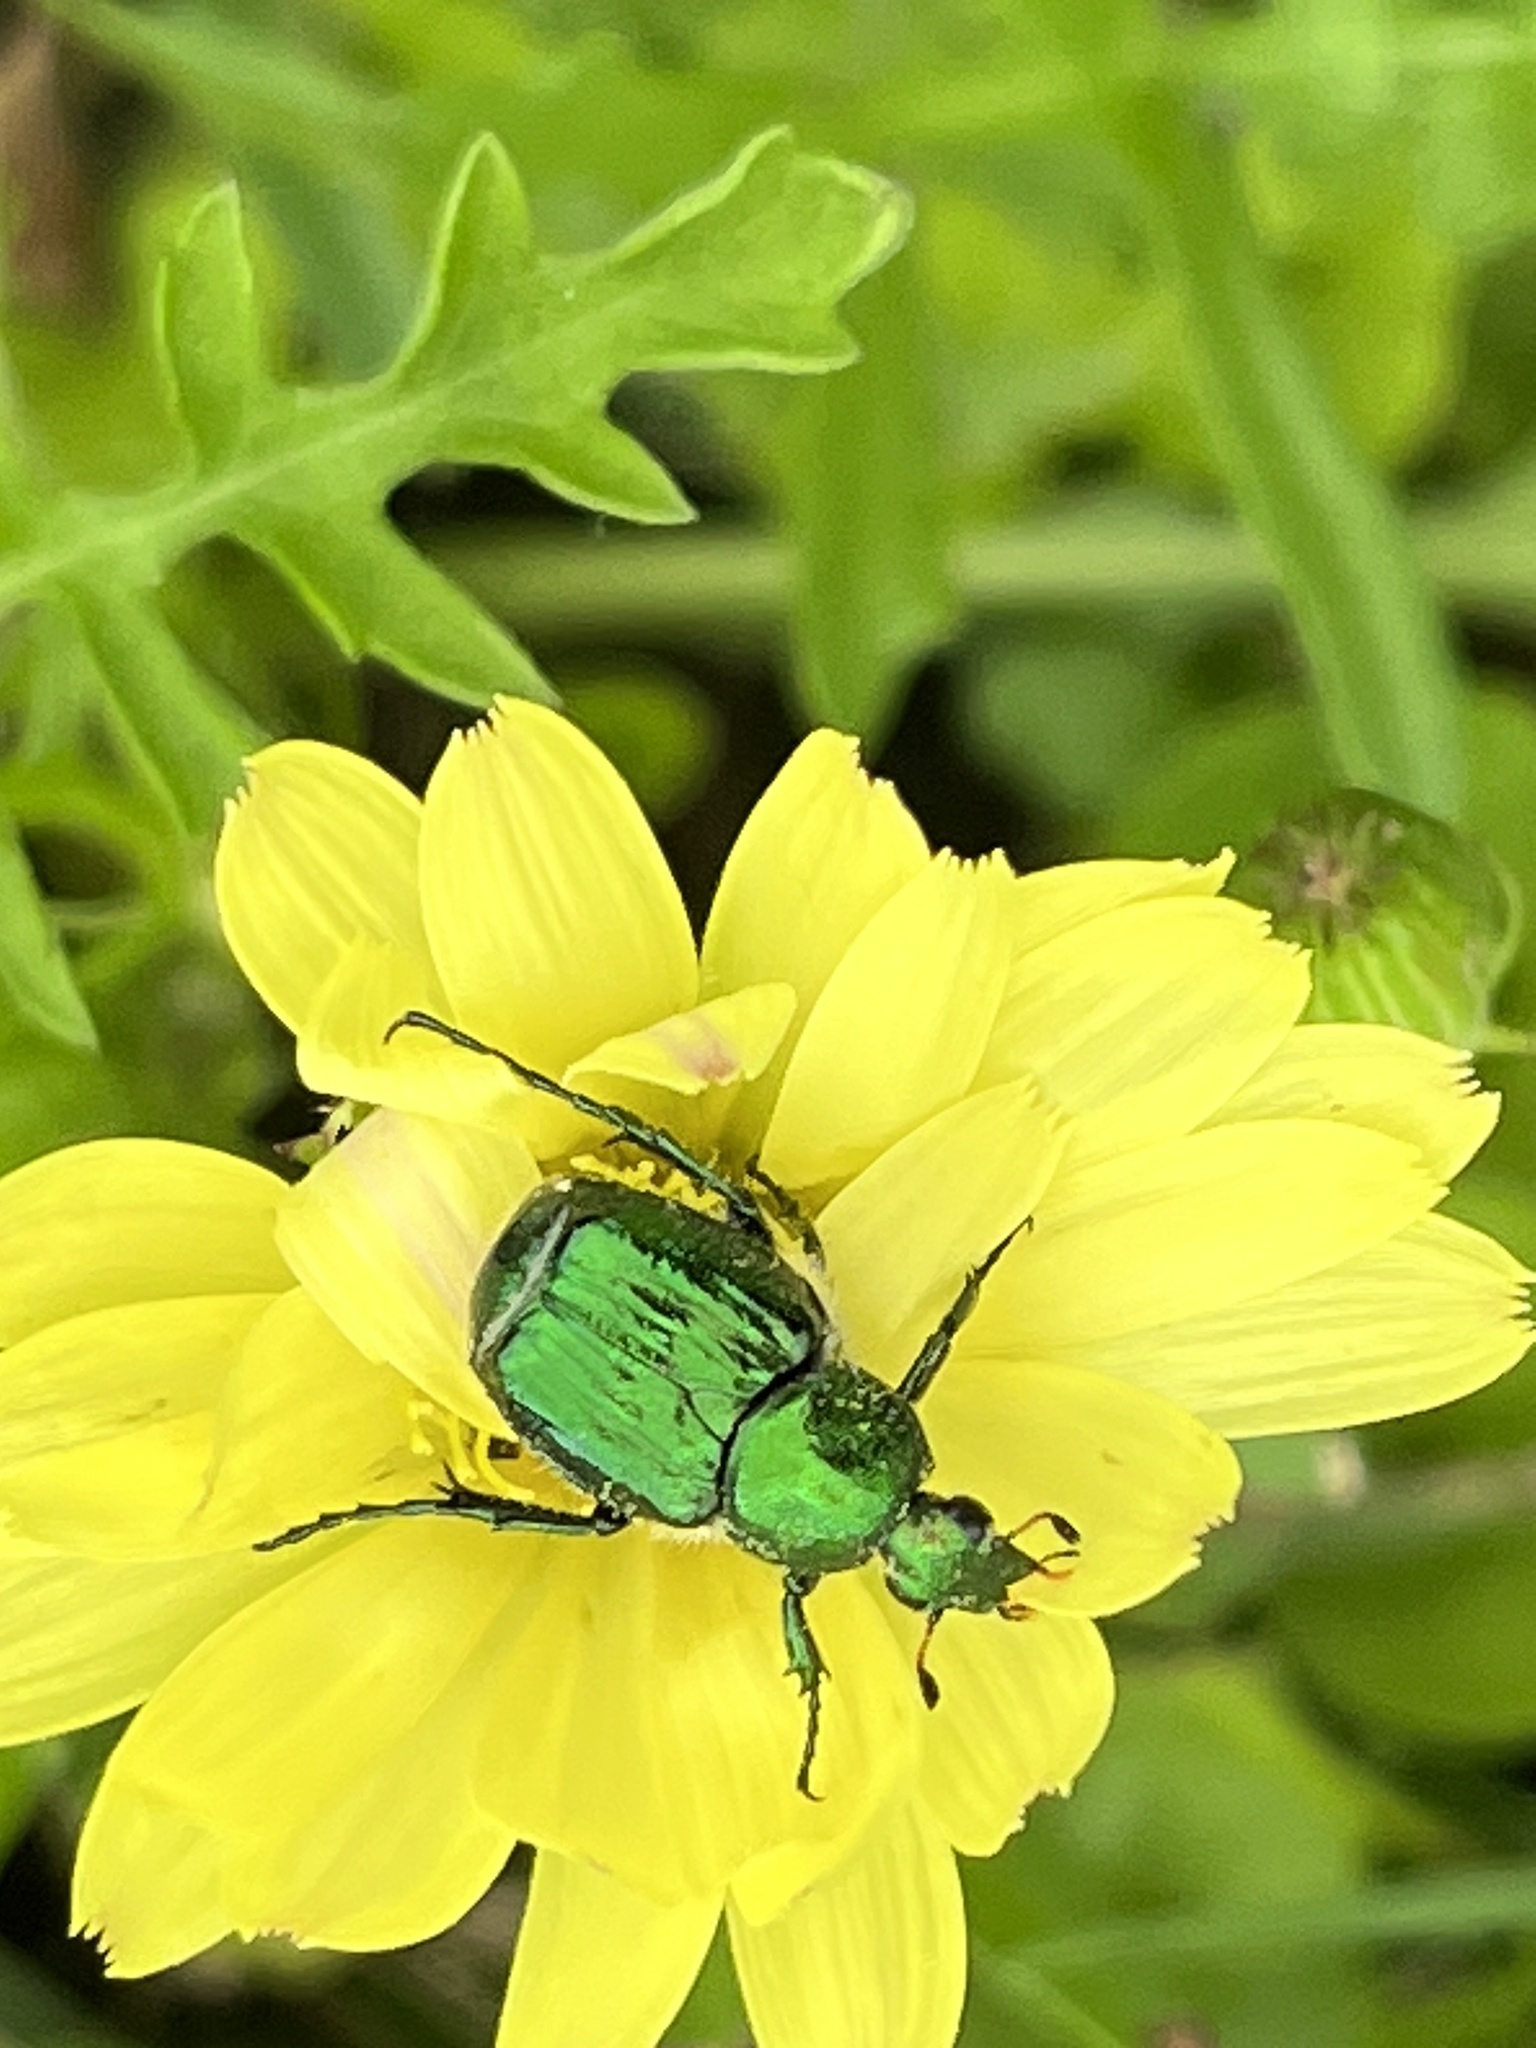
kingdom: Animalia
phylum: Arthropoda
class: Insecta
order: Coleoptera
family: Scarabaeidae
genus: Trichiotinus
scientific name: Trichiotinus lunulatus
